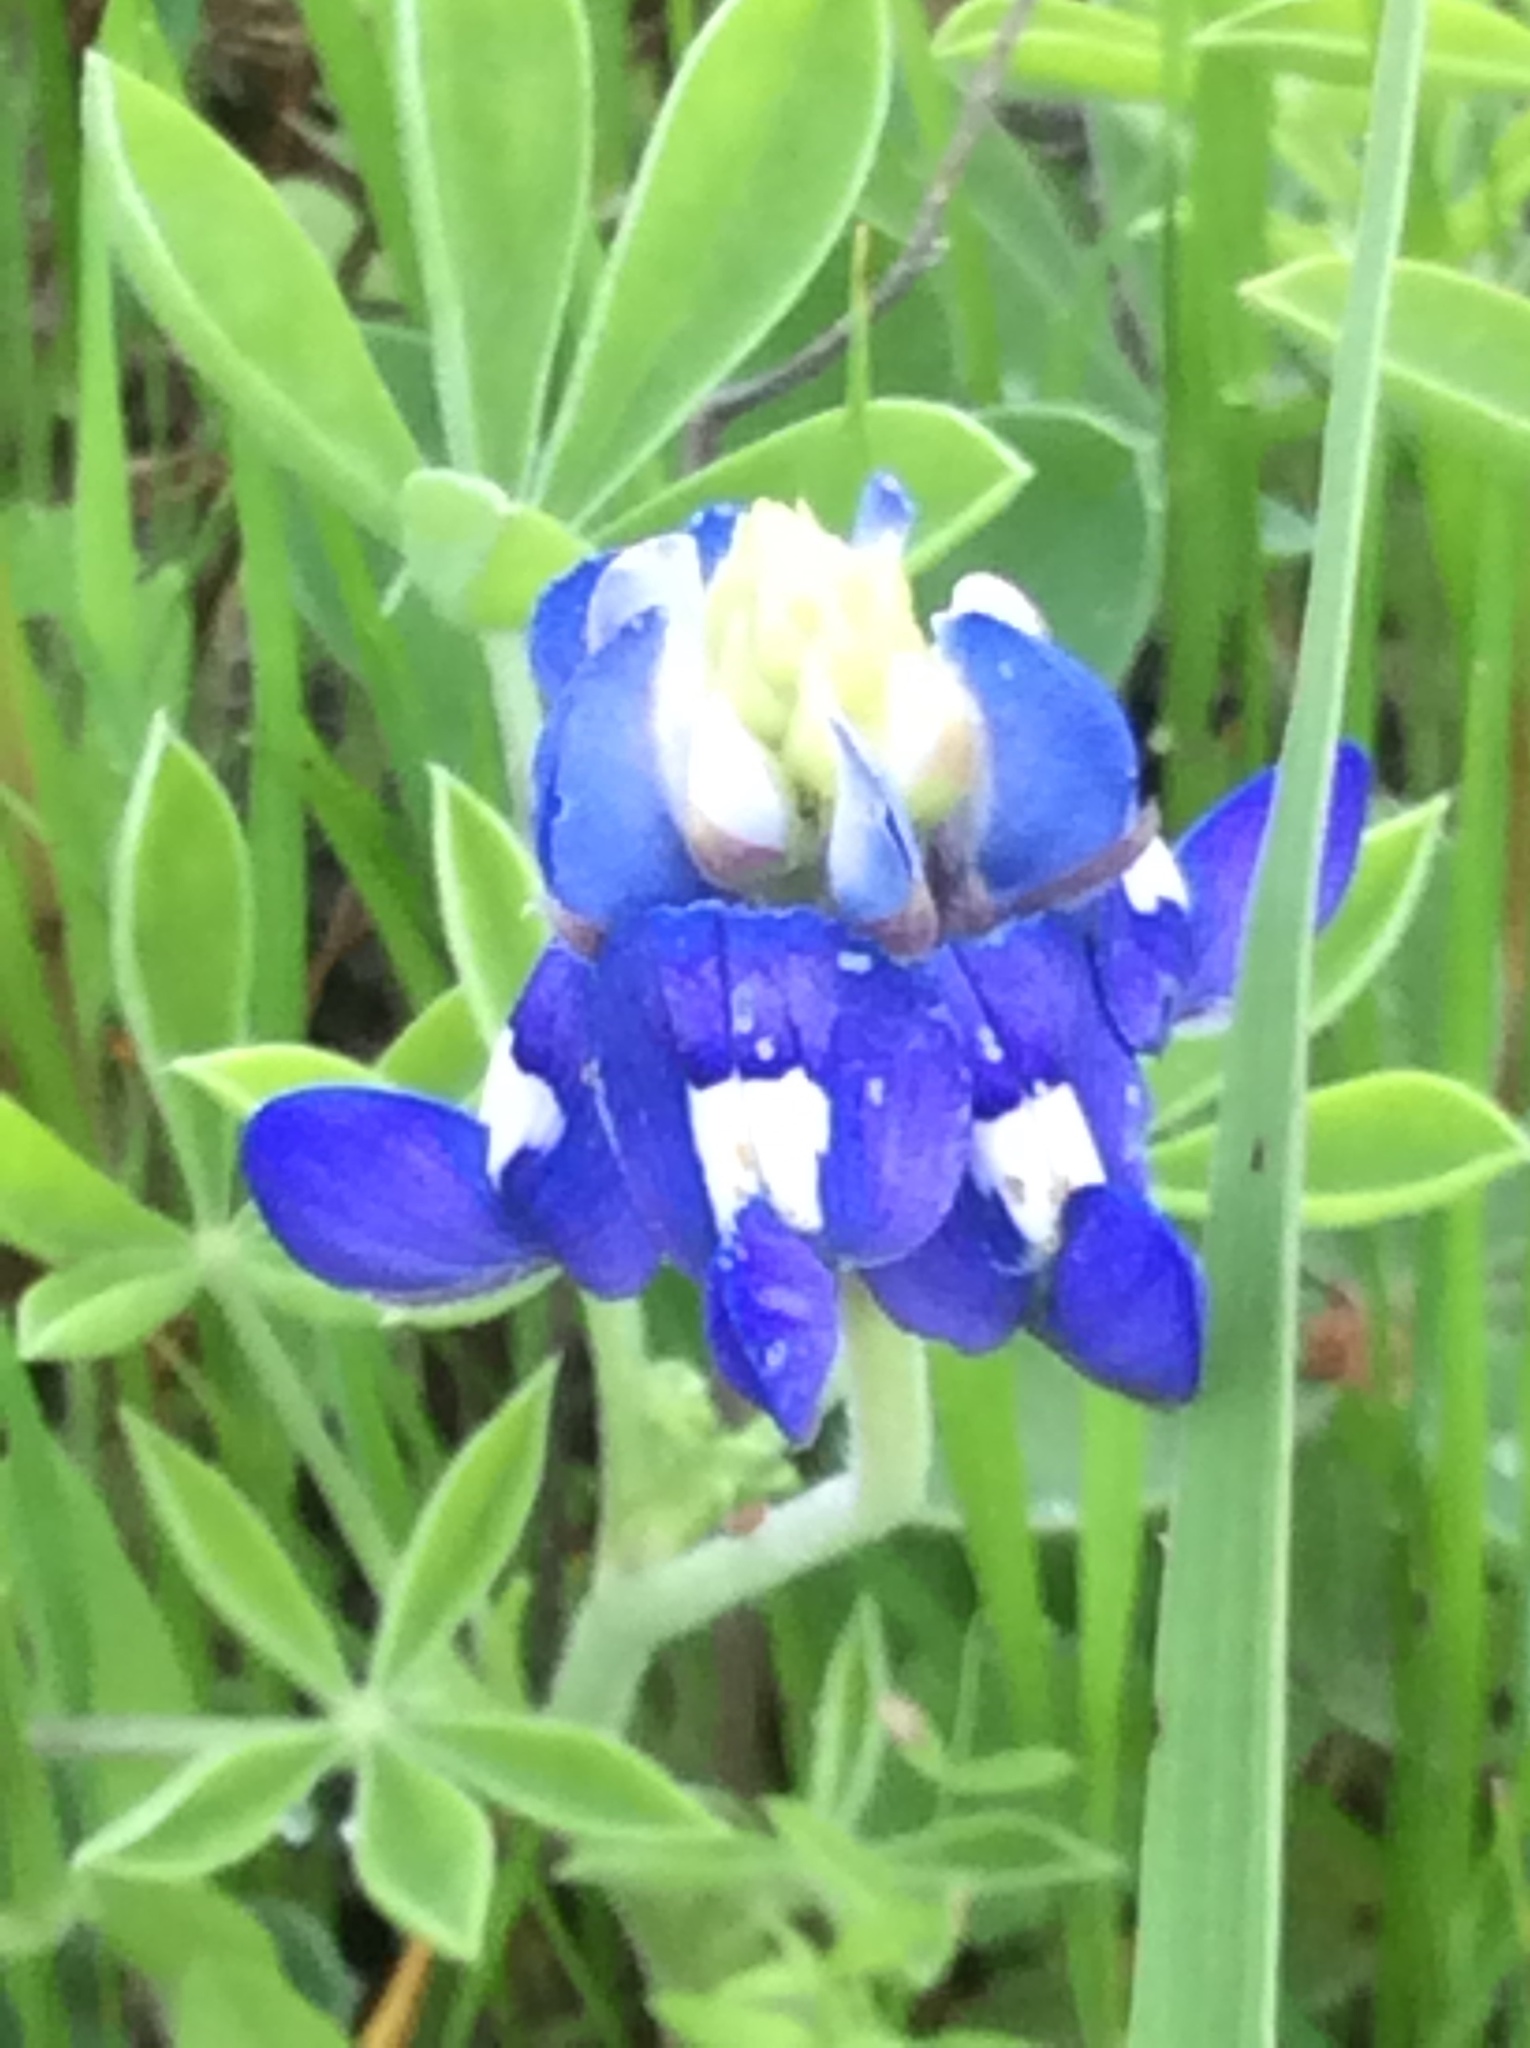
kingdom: Plantae
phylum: Tracheophyta
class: Magnoliopsida
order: Fabales
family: Fabaceae
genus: Lupinus
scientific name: Lupinus texensis
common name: Texas bluebonnet
